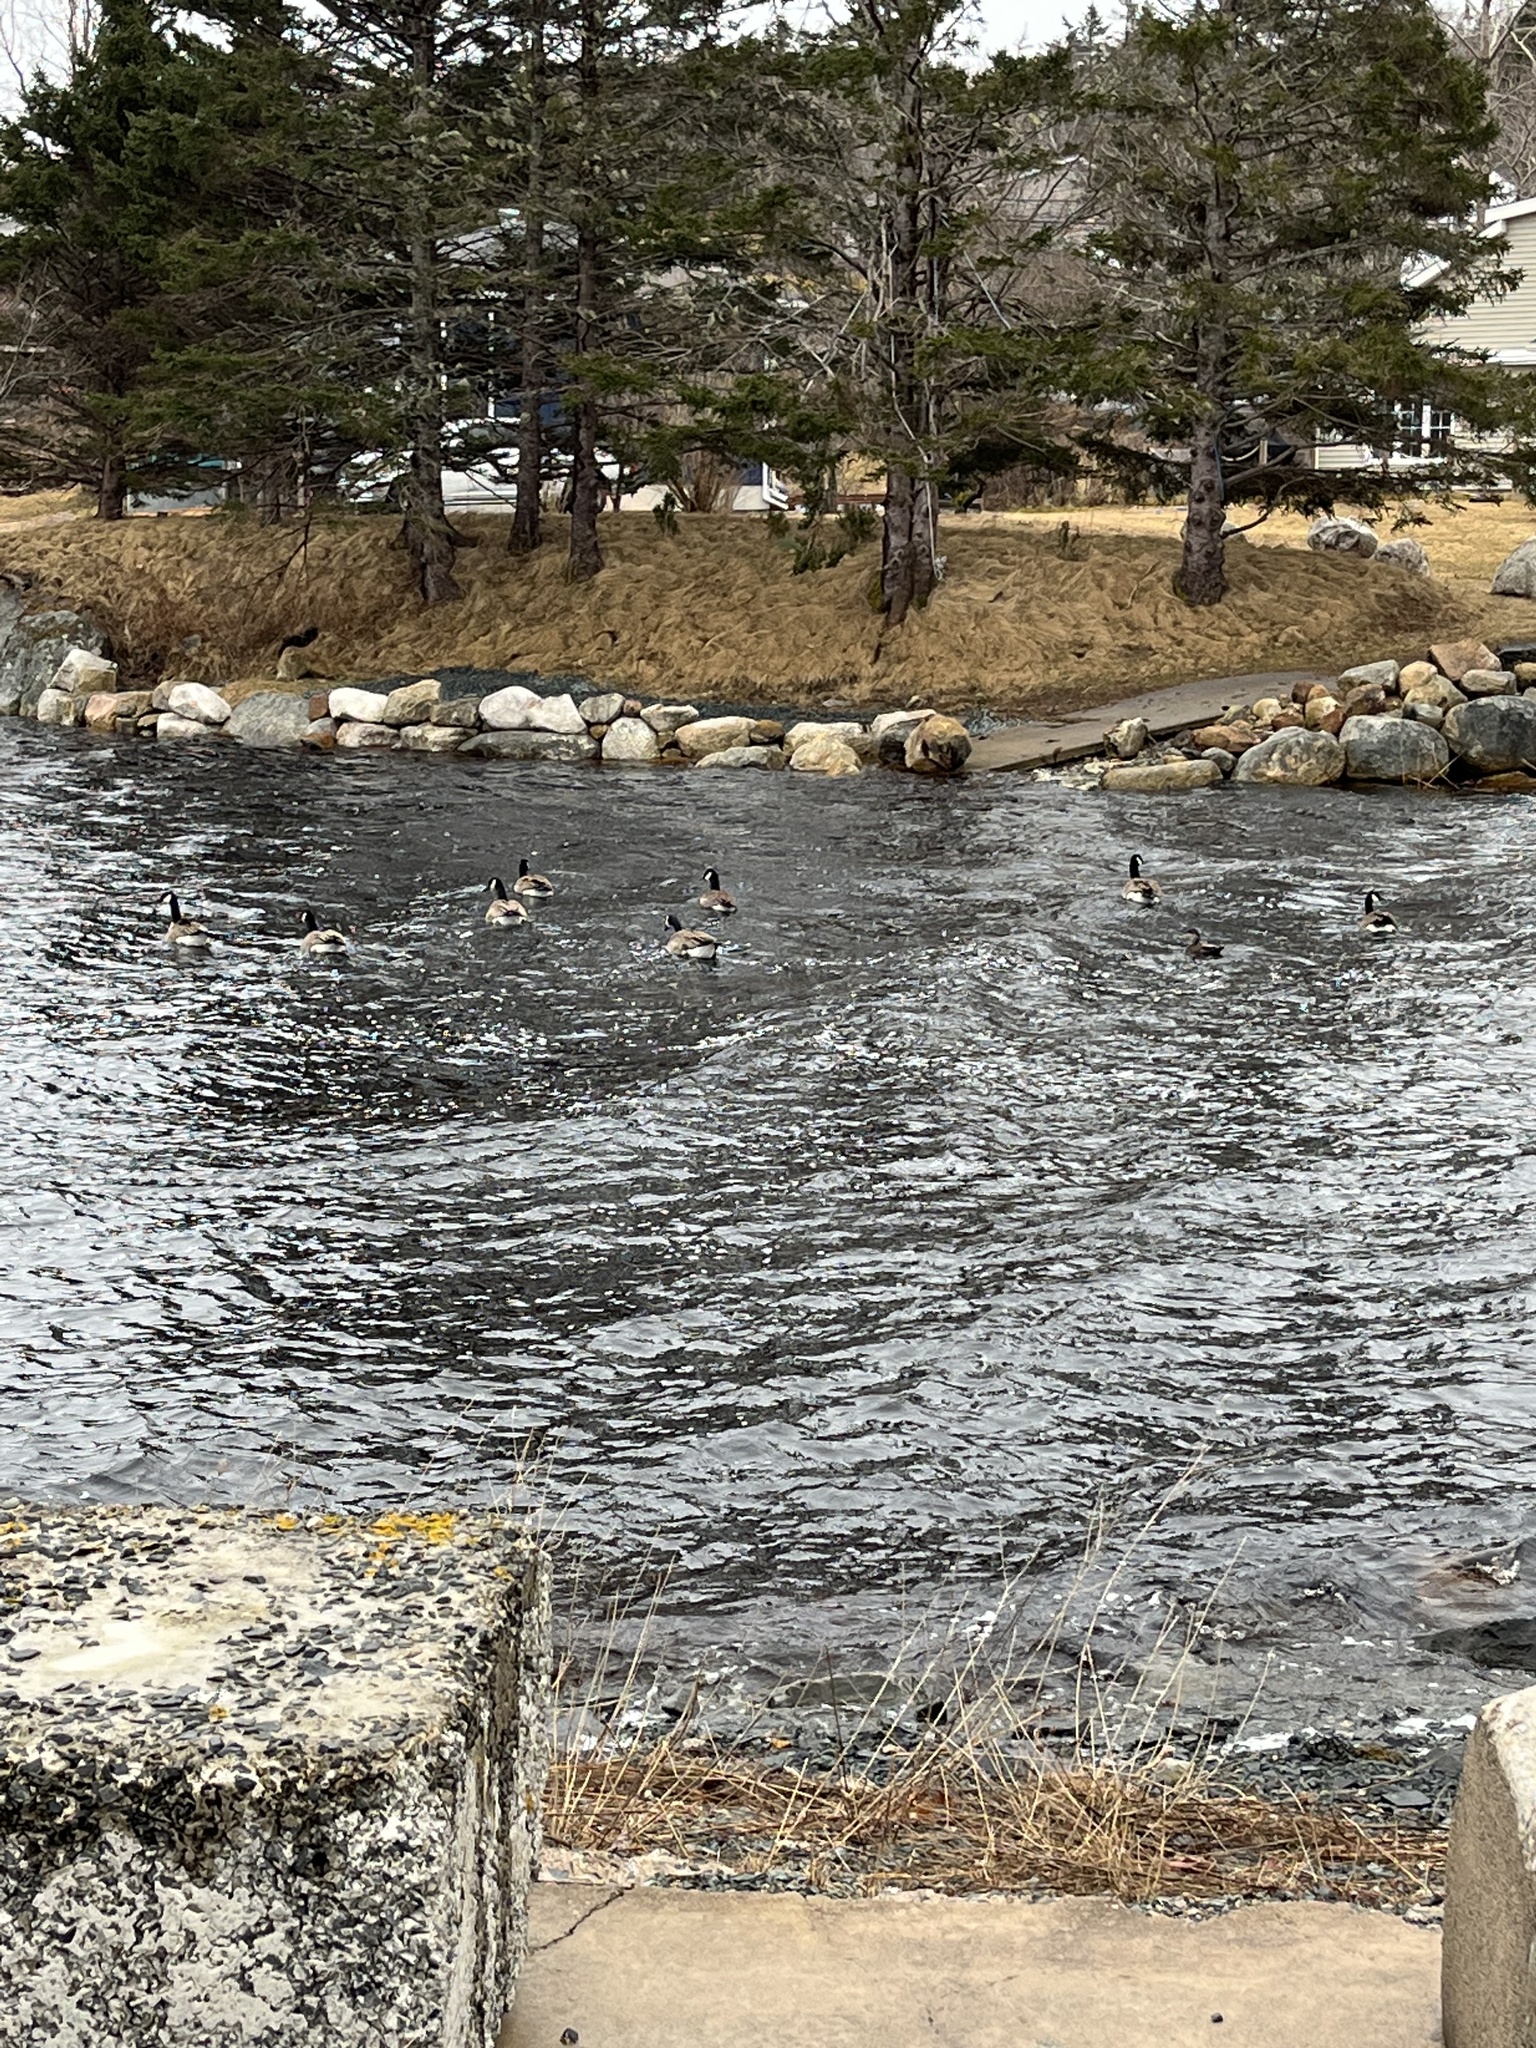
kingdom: Animalia
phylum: Chordata
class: Aves
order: Anseriformes
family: Anatidae
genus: Branta
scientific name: Branta canadensis
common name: Canada goose
